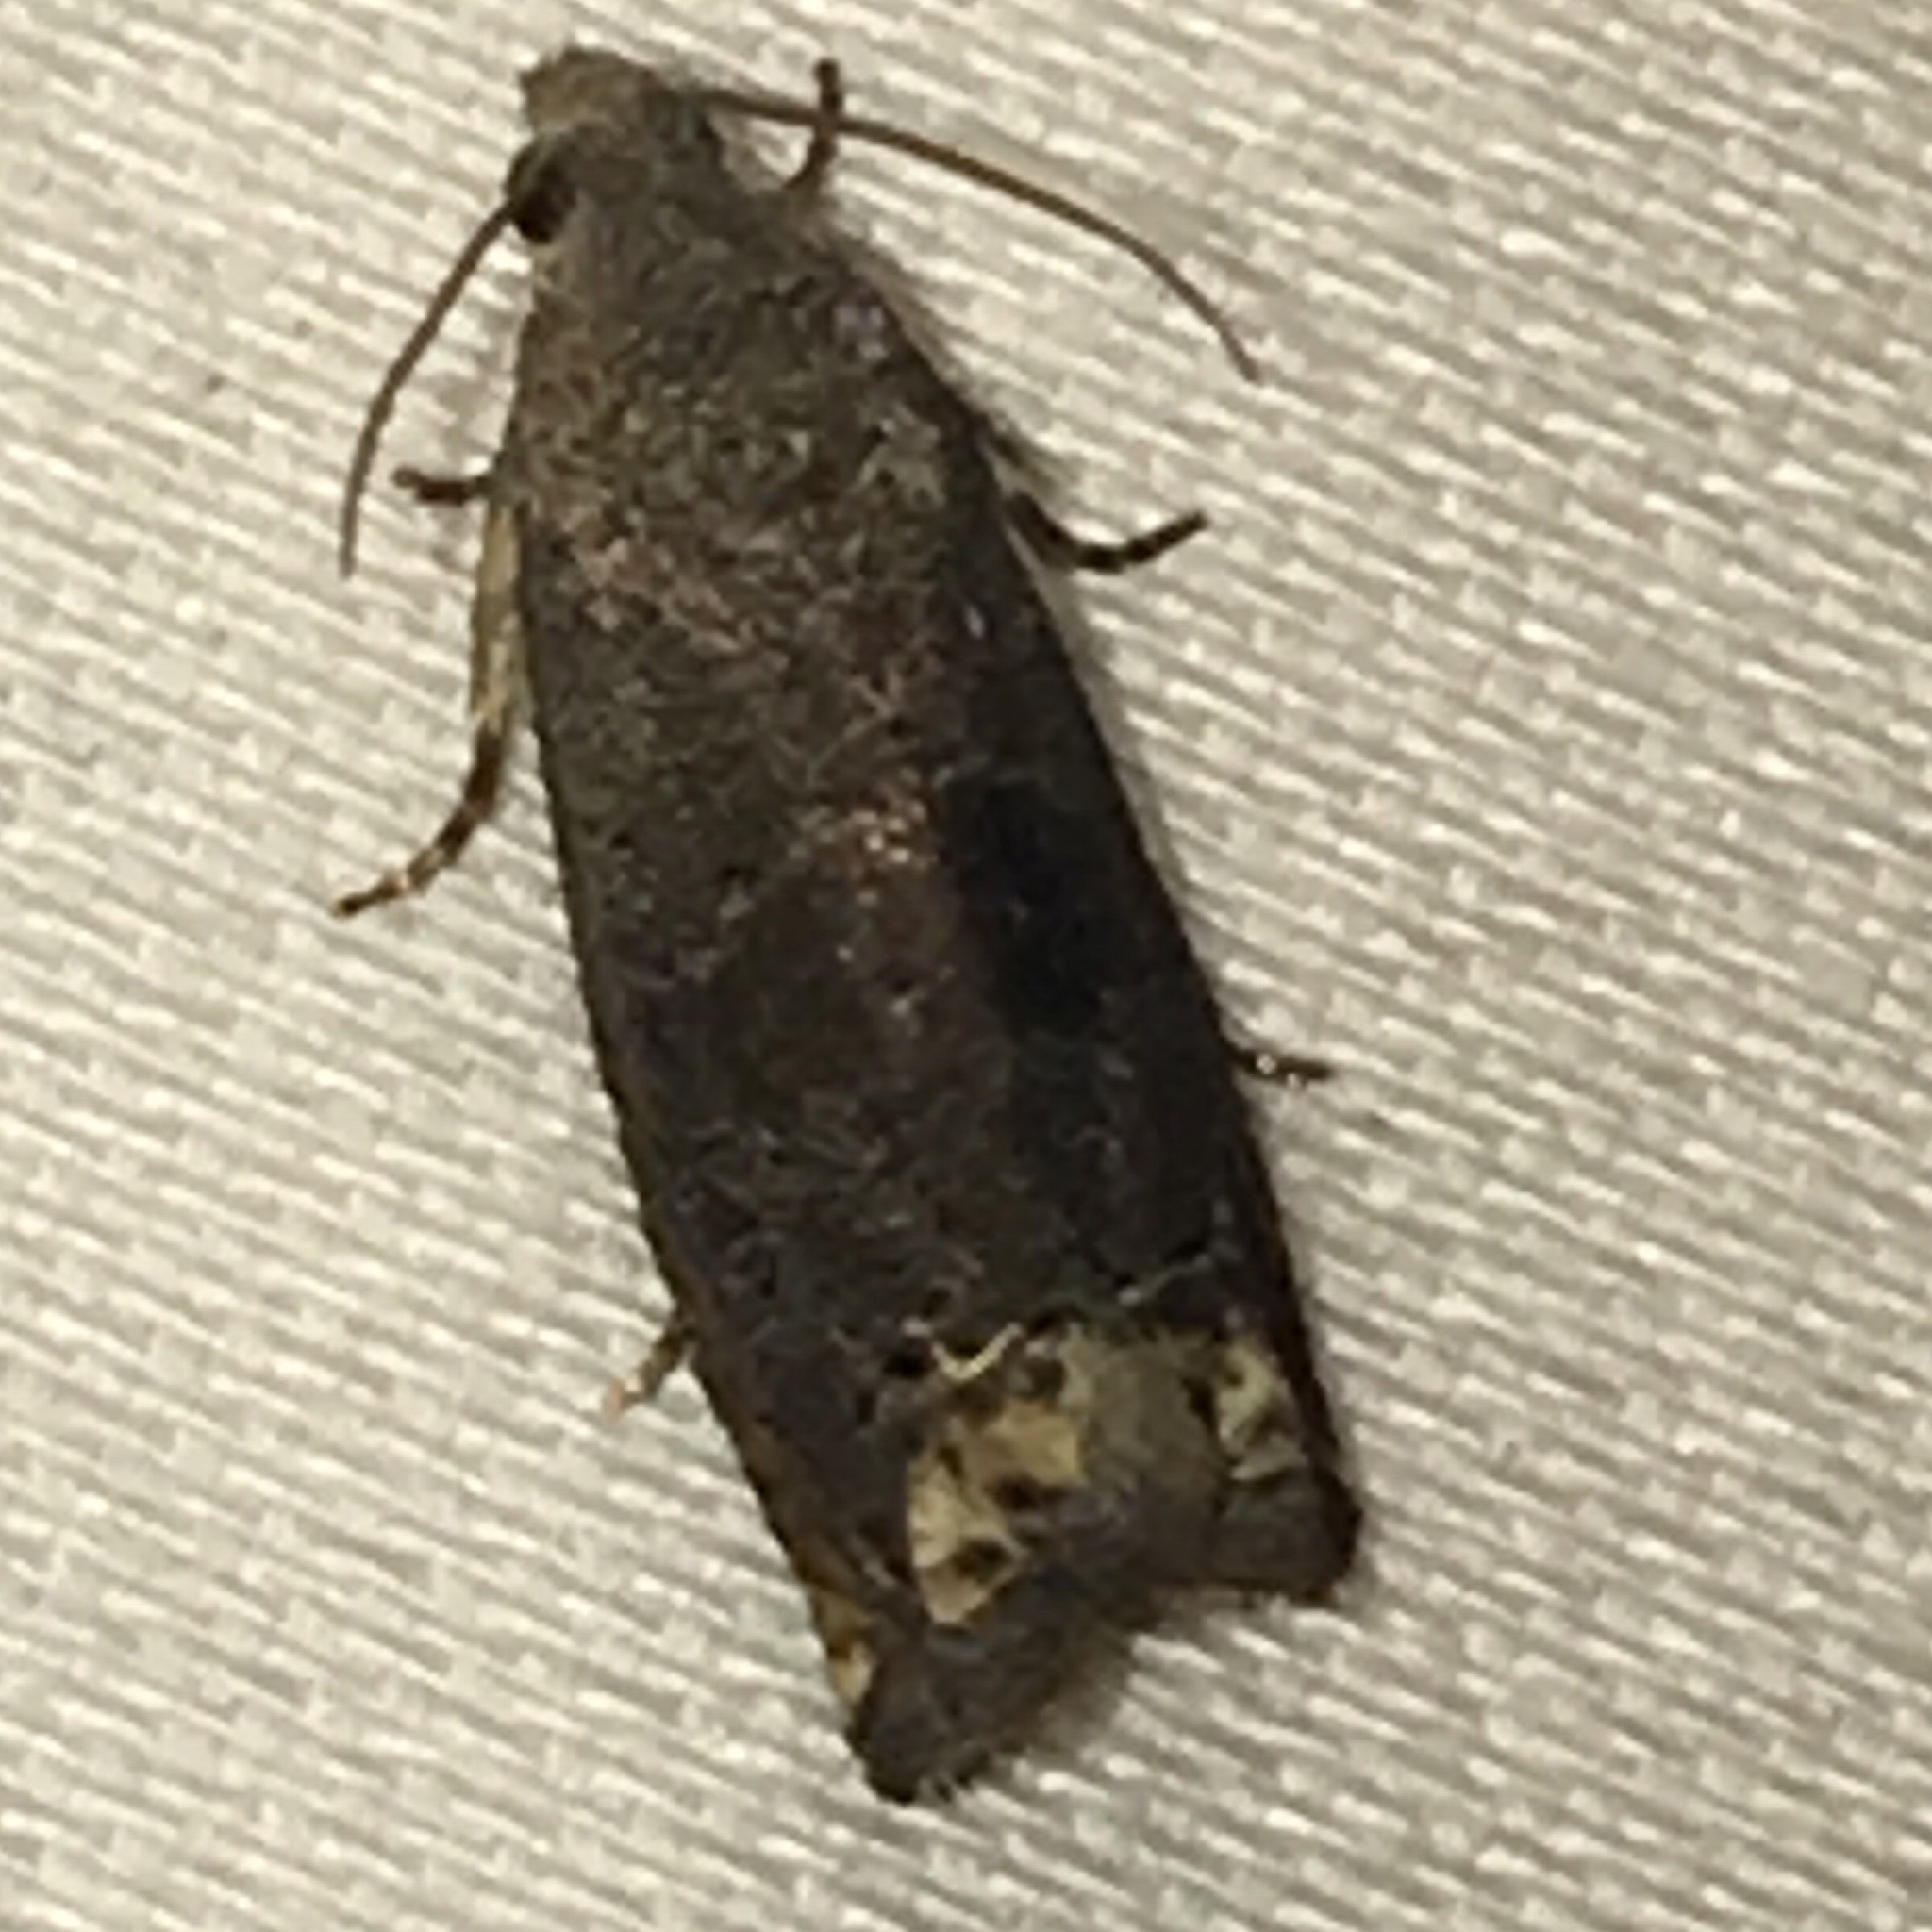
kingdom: Animalia
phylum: Arthropoda
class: Insecta
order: Lepidoptera
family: Tortricidae
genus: Epiblema
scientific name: Epiblema strenuana
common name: Ragweed borer moth
